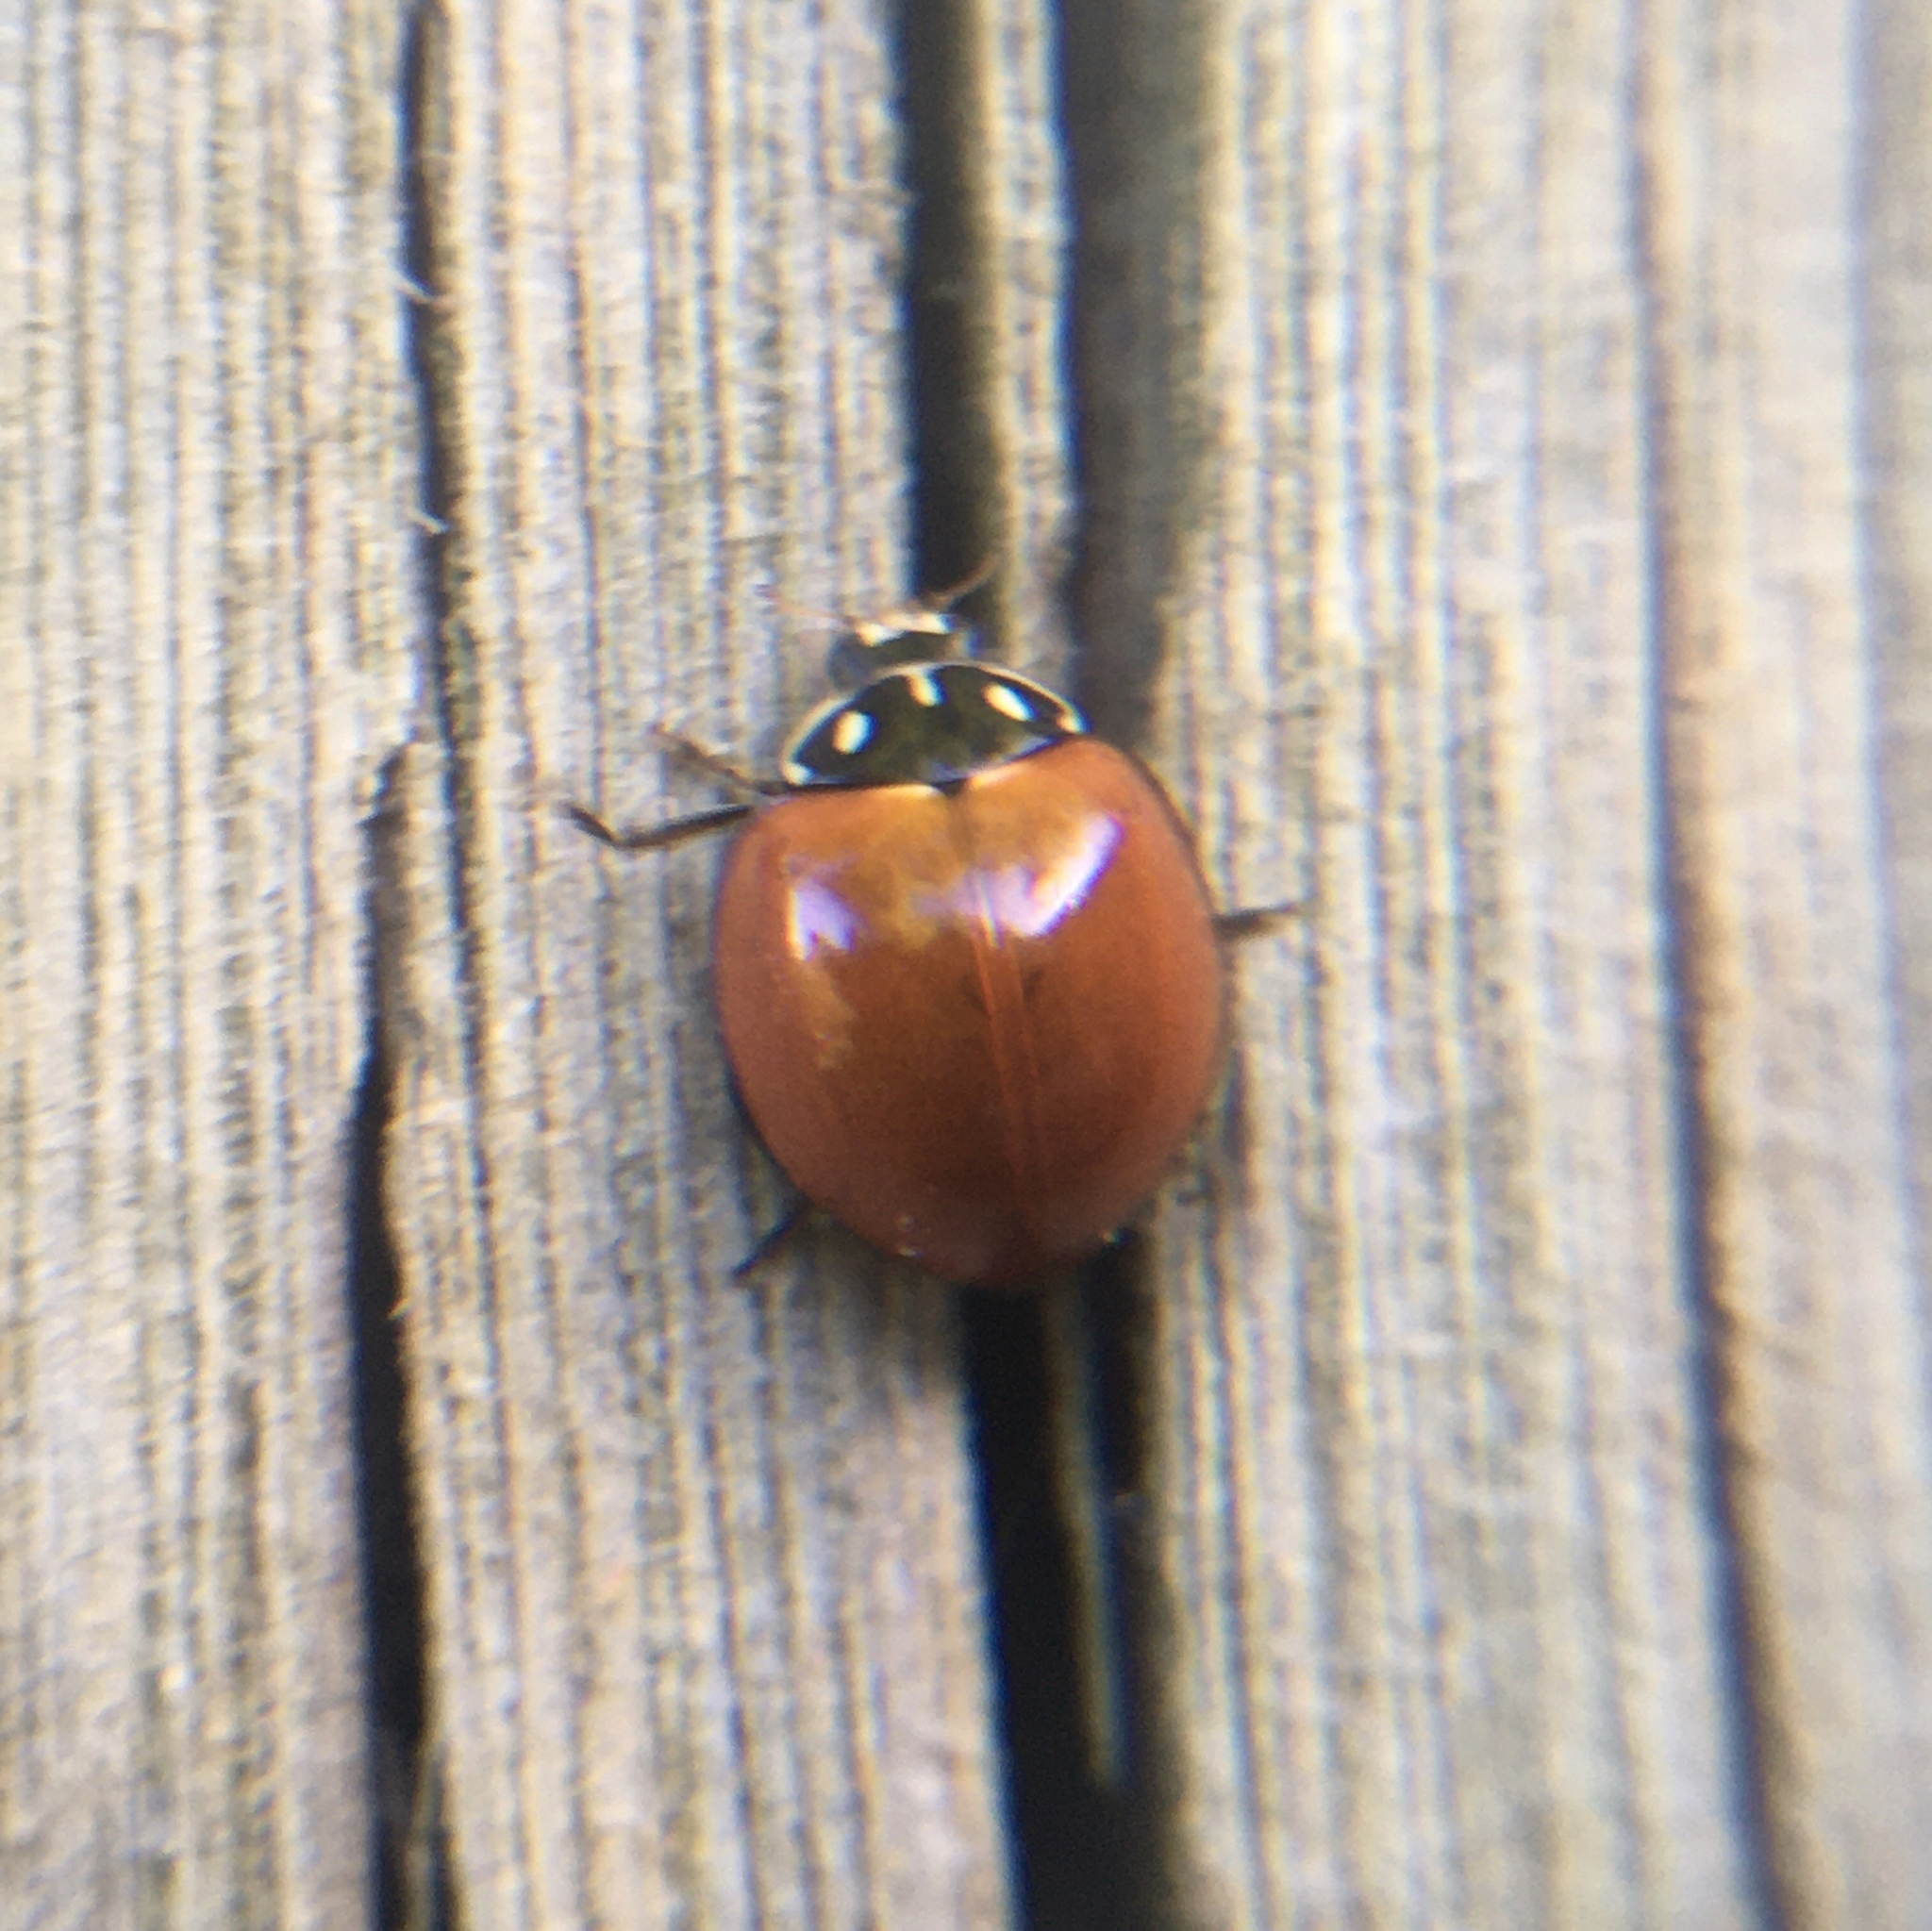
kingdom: Animalia
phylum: Arthropoda
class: Insecta
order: Coleoptera
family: Coccinellidae
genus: Cycloneda
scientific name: Cycloneda sanguinea
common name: Ladybird beetle
